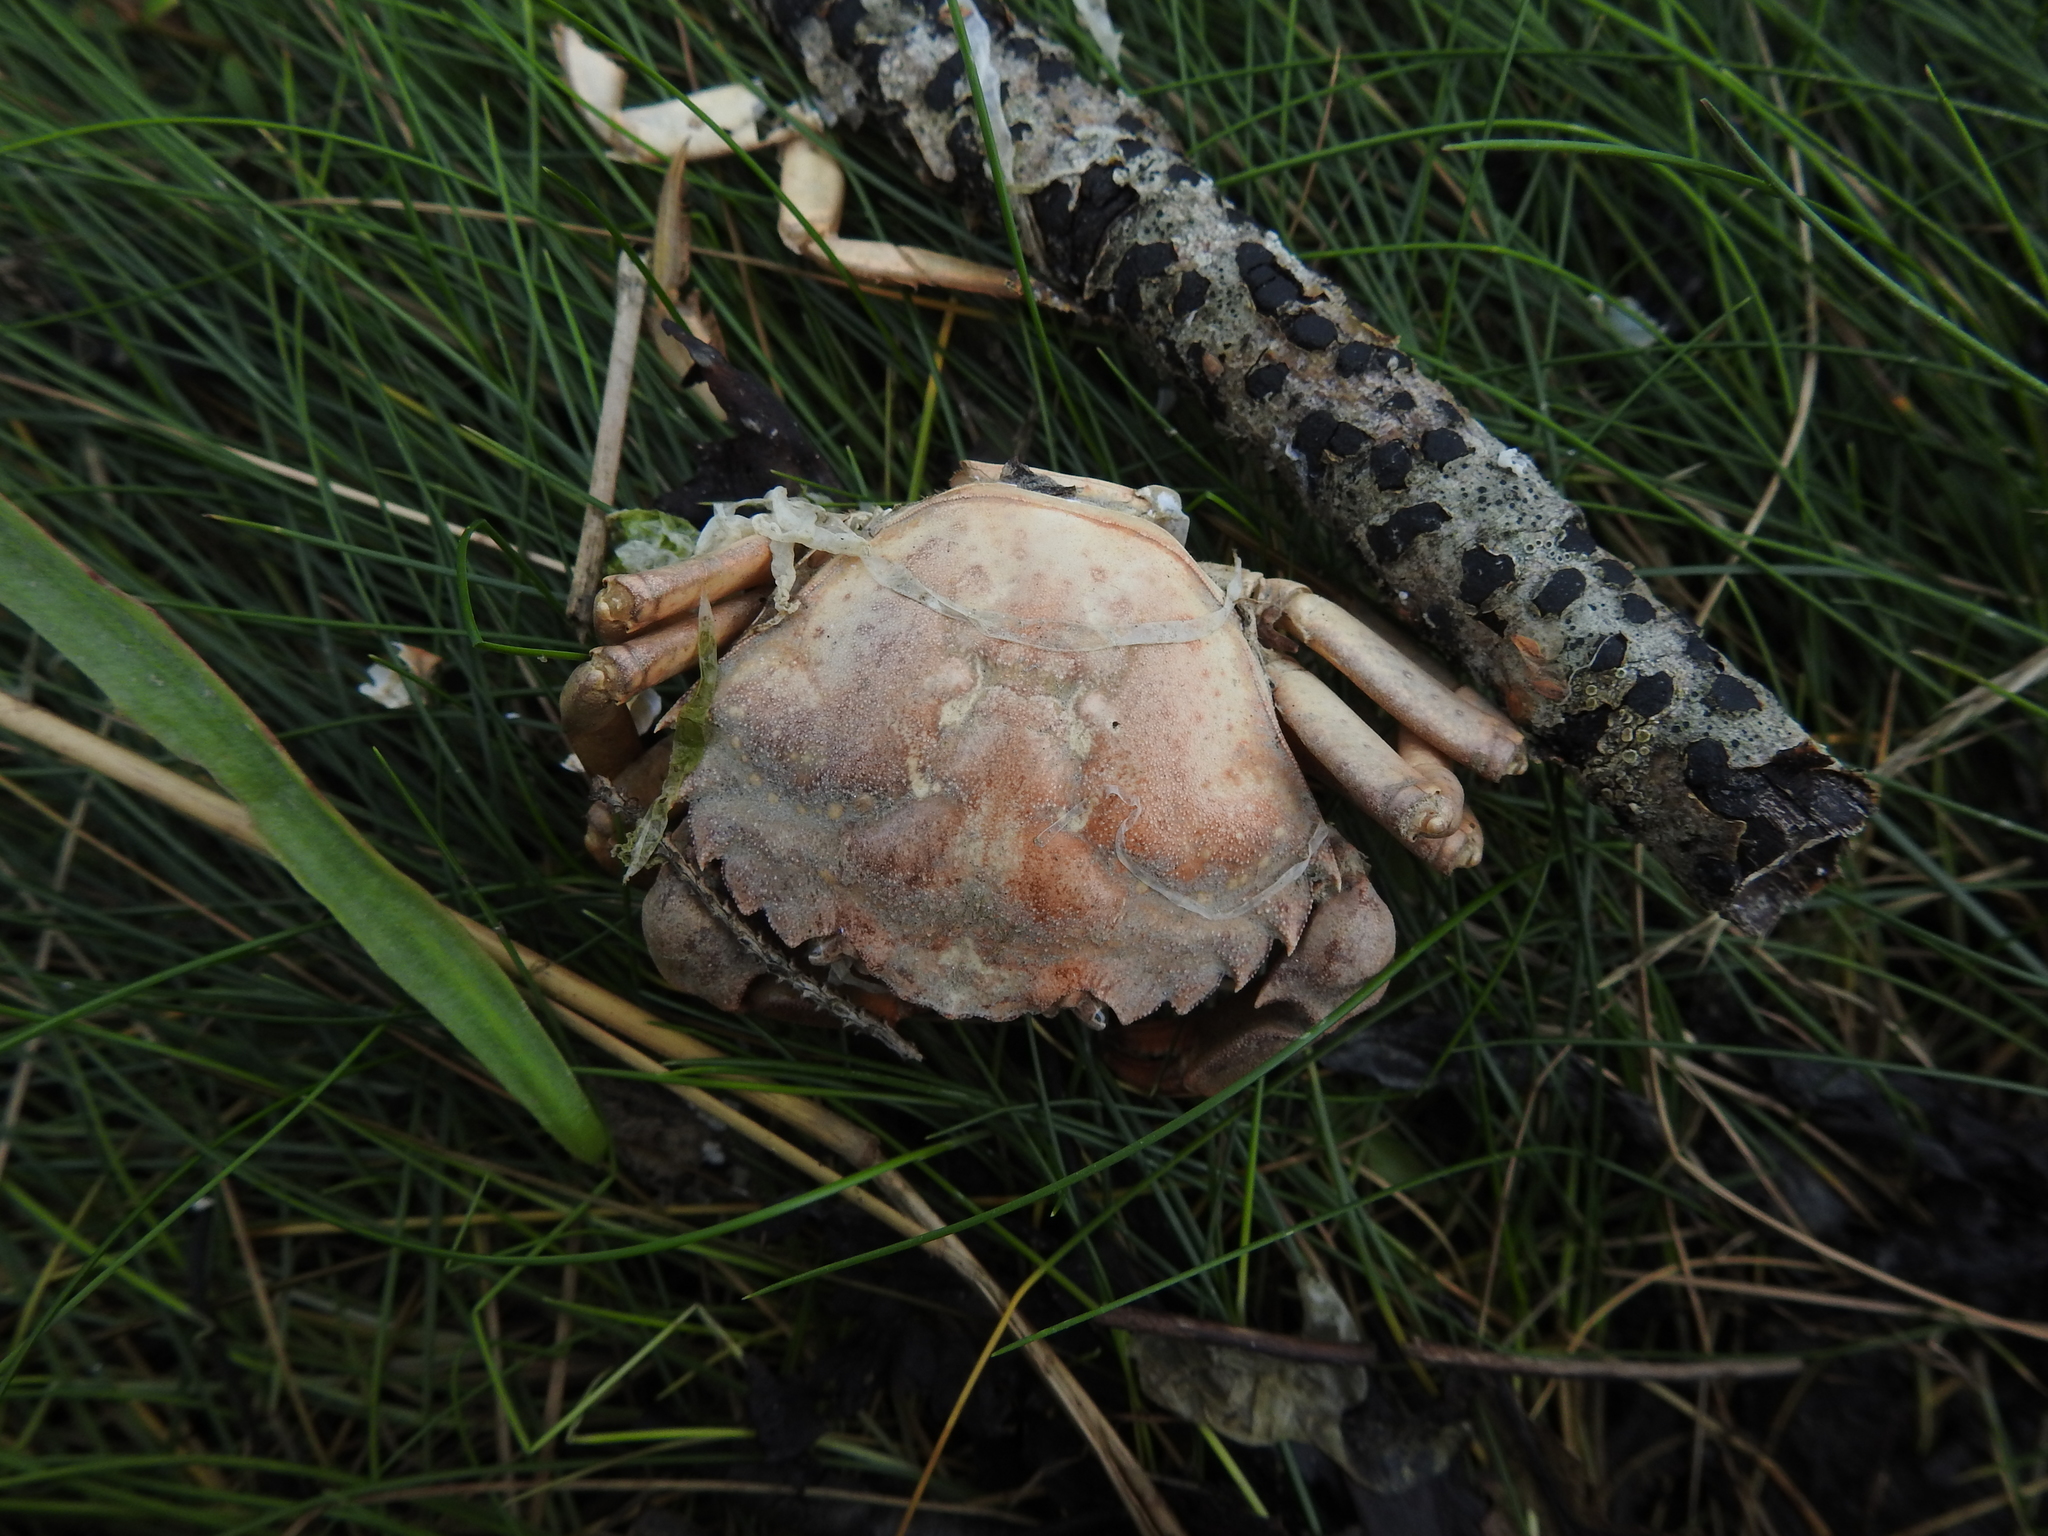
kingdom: Animalia
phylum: Arthropoda
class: Malacostraca
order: Decapoda
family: Carcinidae
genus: Carcinus
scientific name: Carcinus maenas
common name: European green crab
